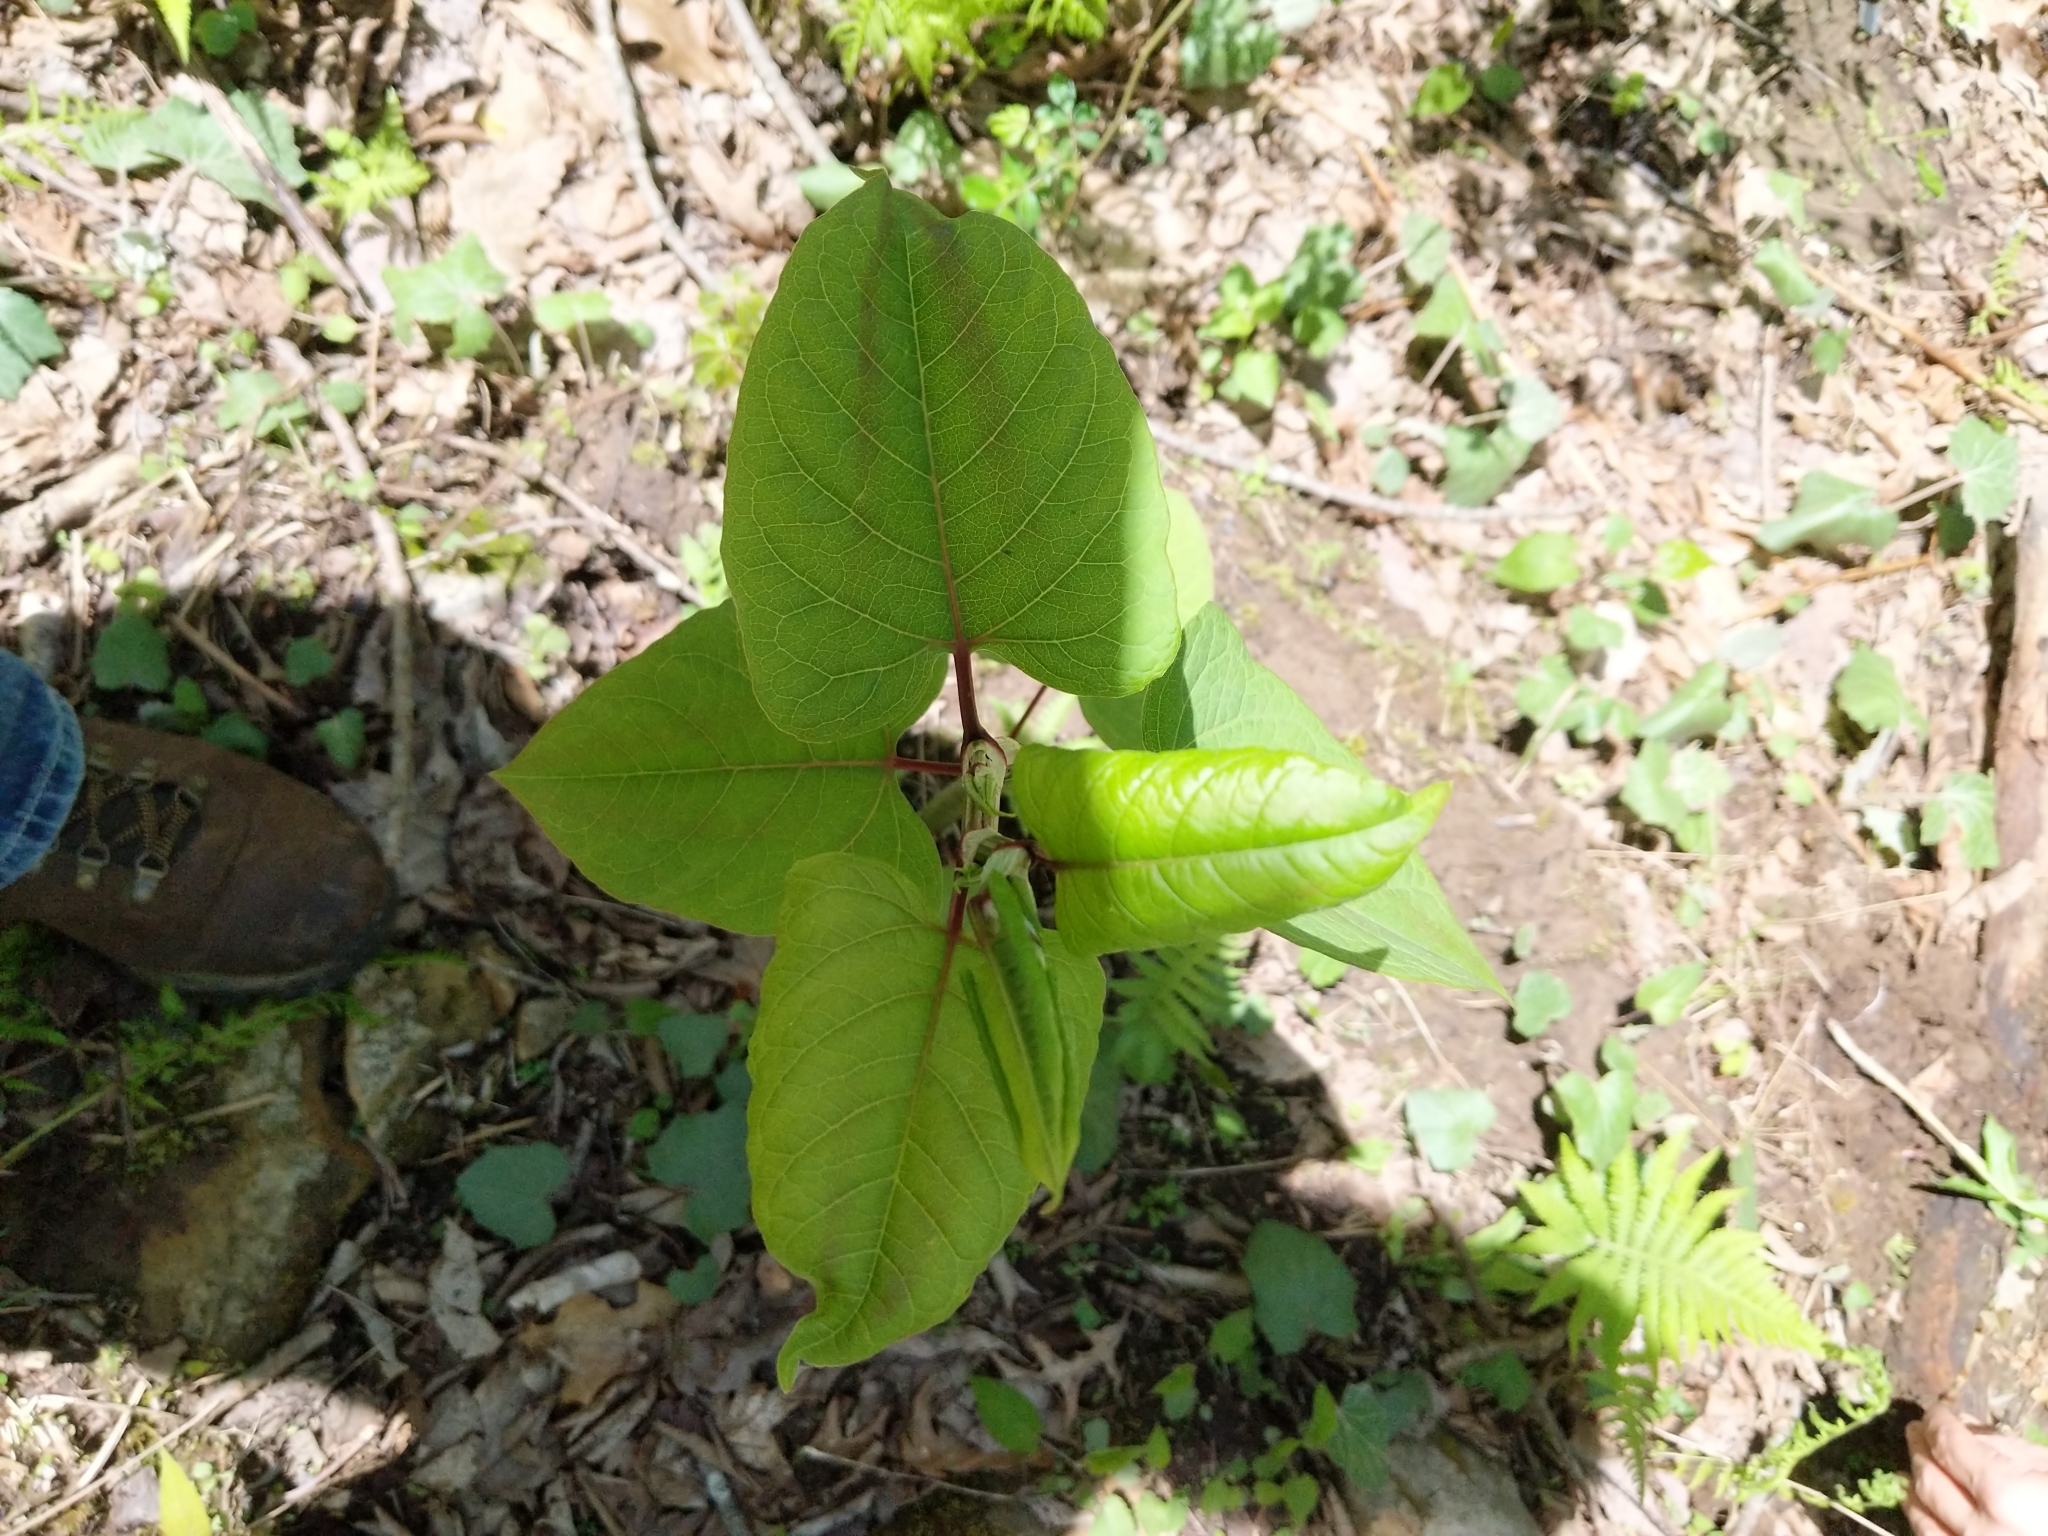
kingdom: Plantae
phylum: Tracheophyta
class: Magnoliopsida
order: Caryophyllales
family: Polygonaceae
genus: Reynoutria
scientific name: Reynoutria japonica
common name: Japanese knotweed
